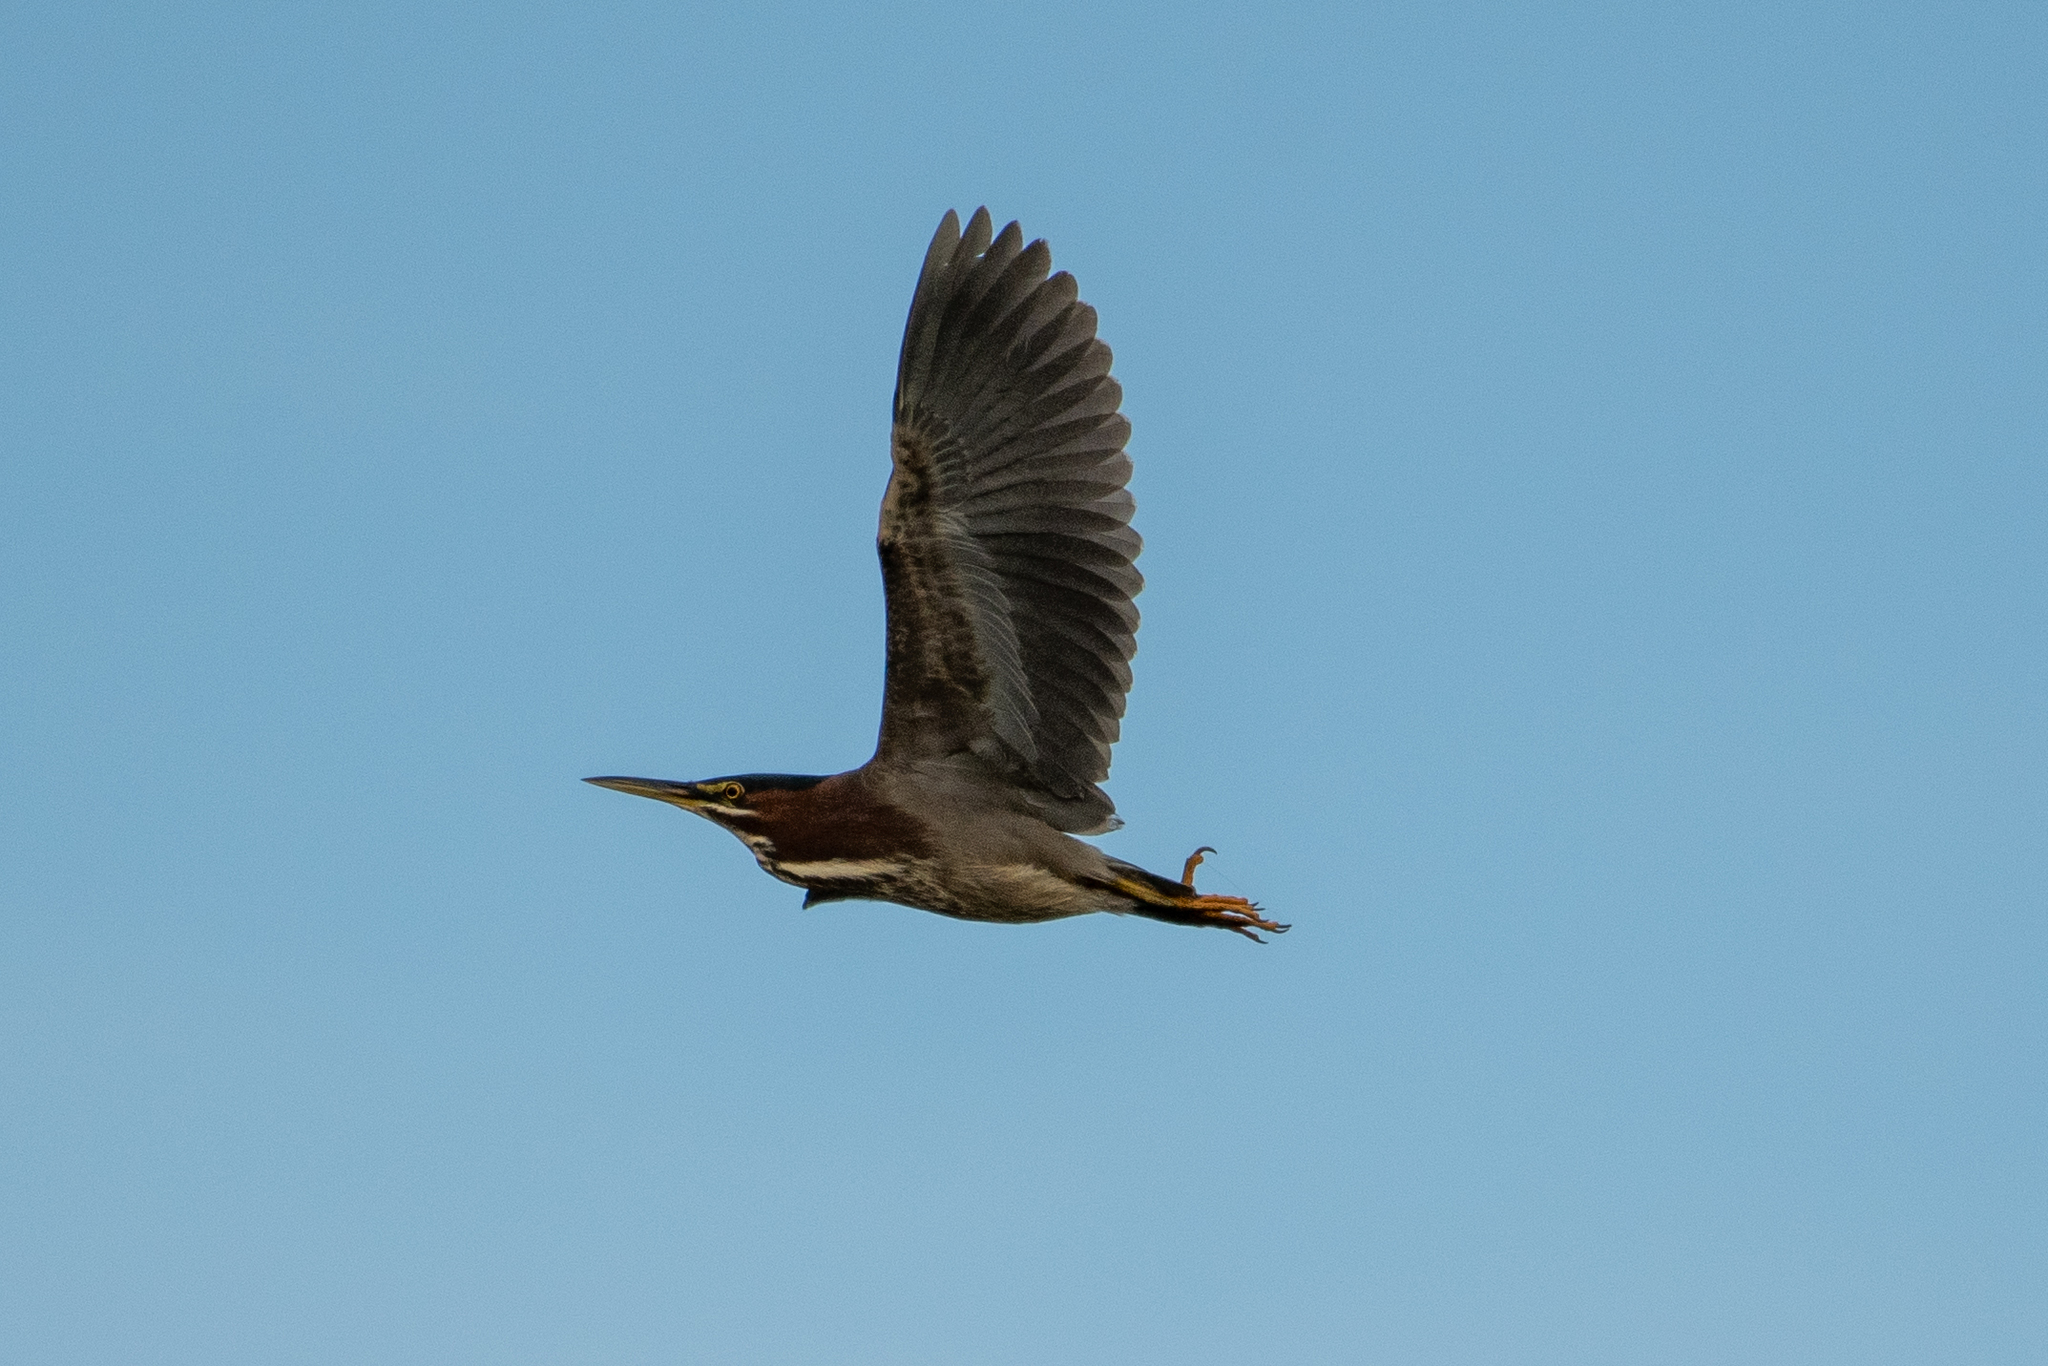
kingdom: Animalia
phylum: Chordata
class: Aves
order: Pelecaniformes
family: Ardeidae
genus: Butorides
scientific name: Butorides virescens
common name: Green heron
